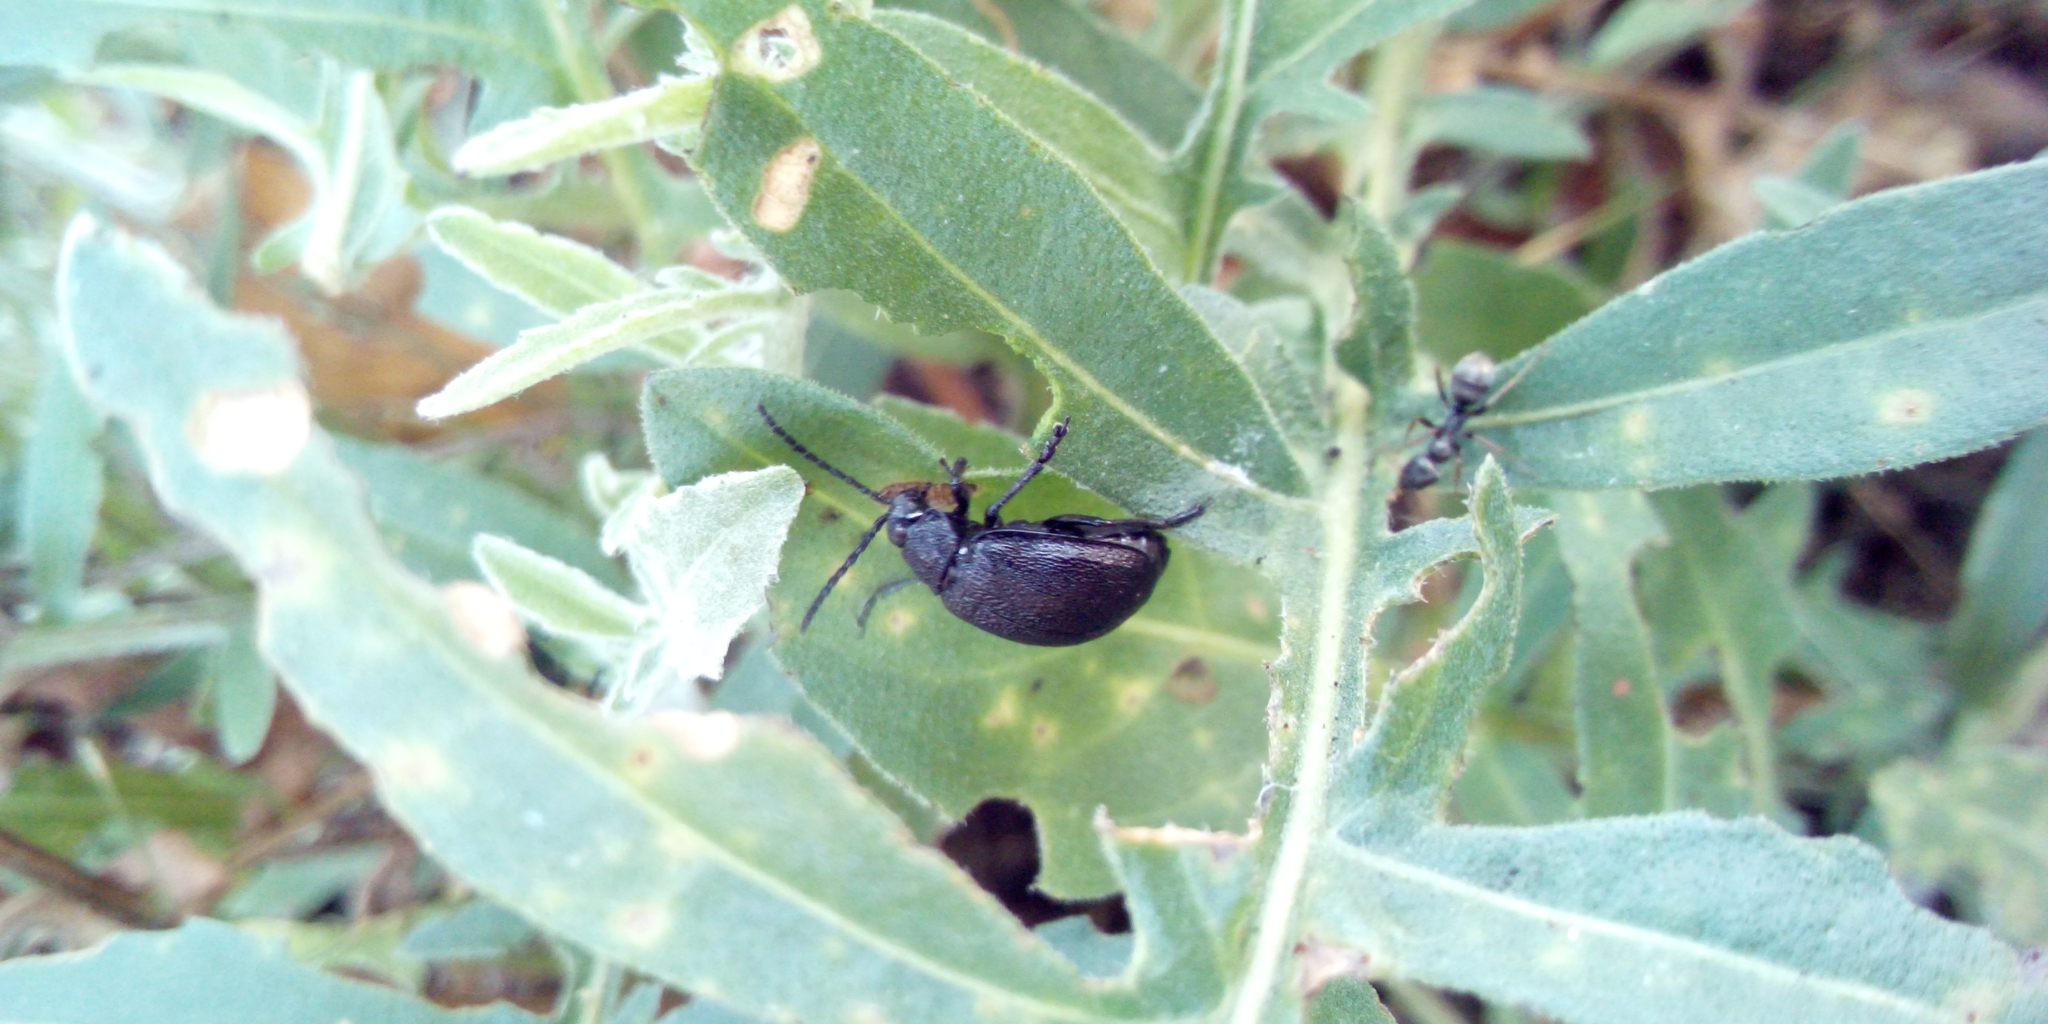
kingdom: Animalia
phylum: Arthropoda
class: Insecta
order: Coleoptera
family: Chrysomelidae
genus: Galeruca
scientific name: Galeruca tanaceti
